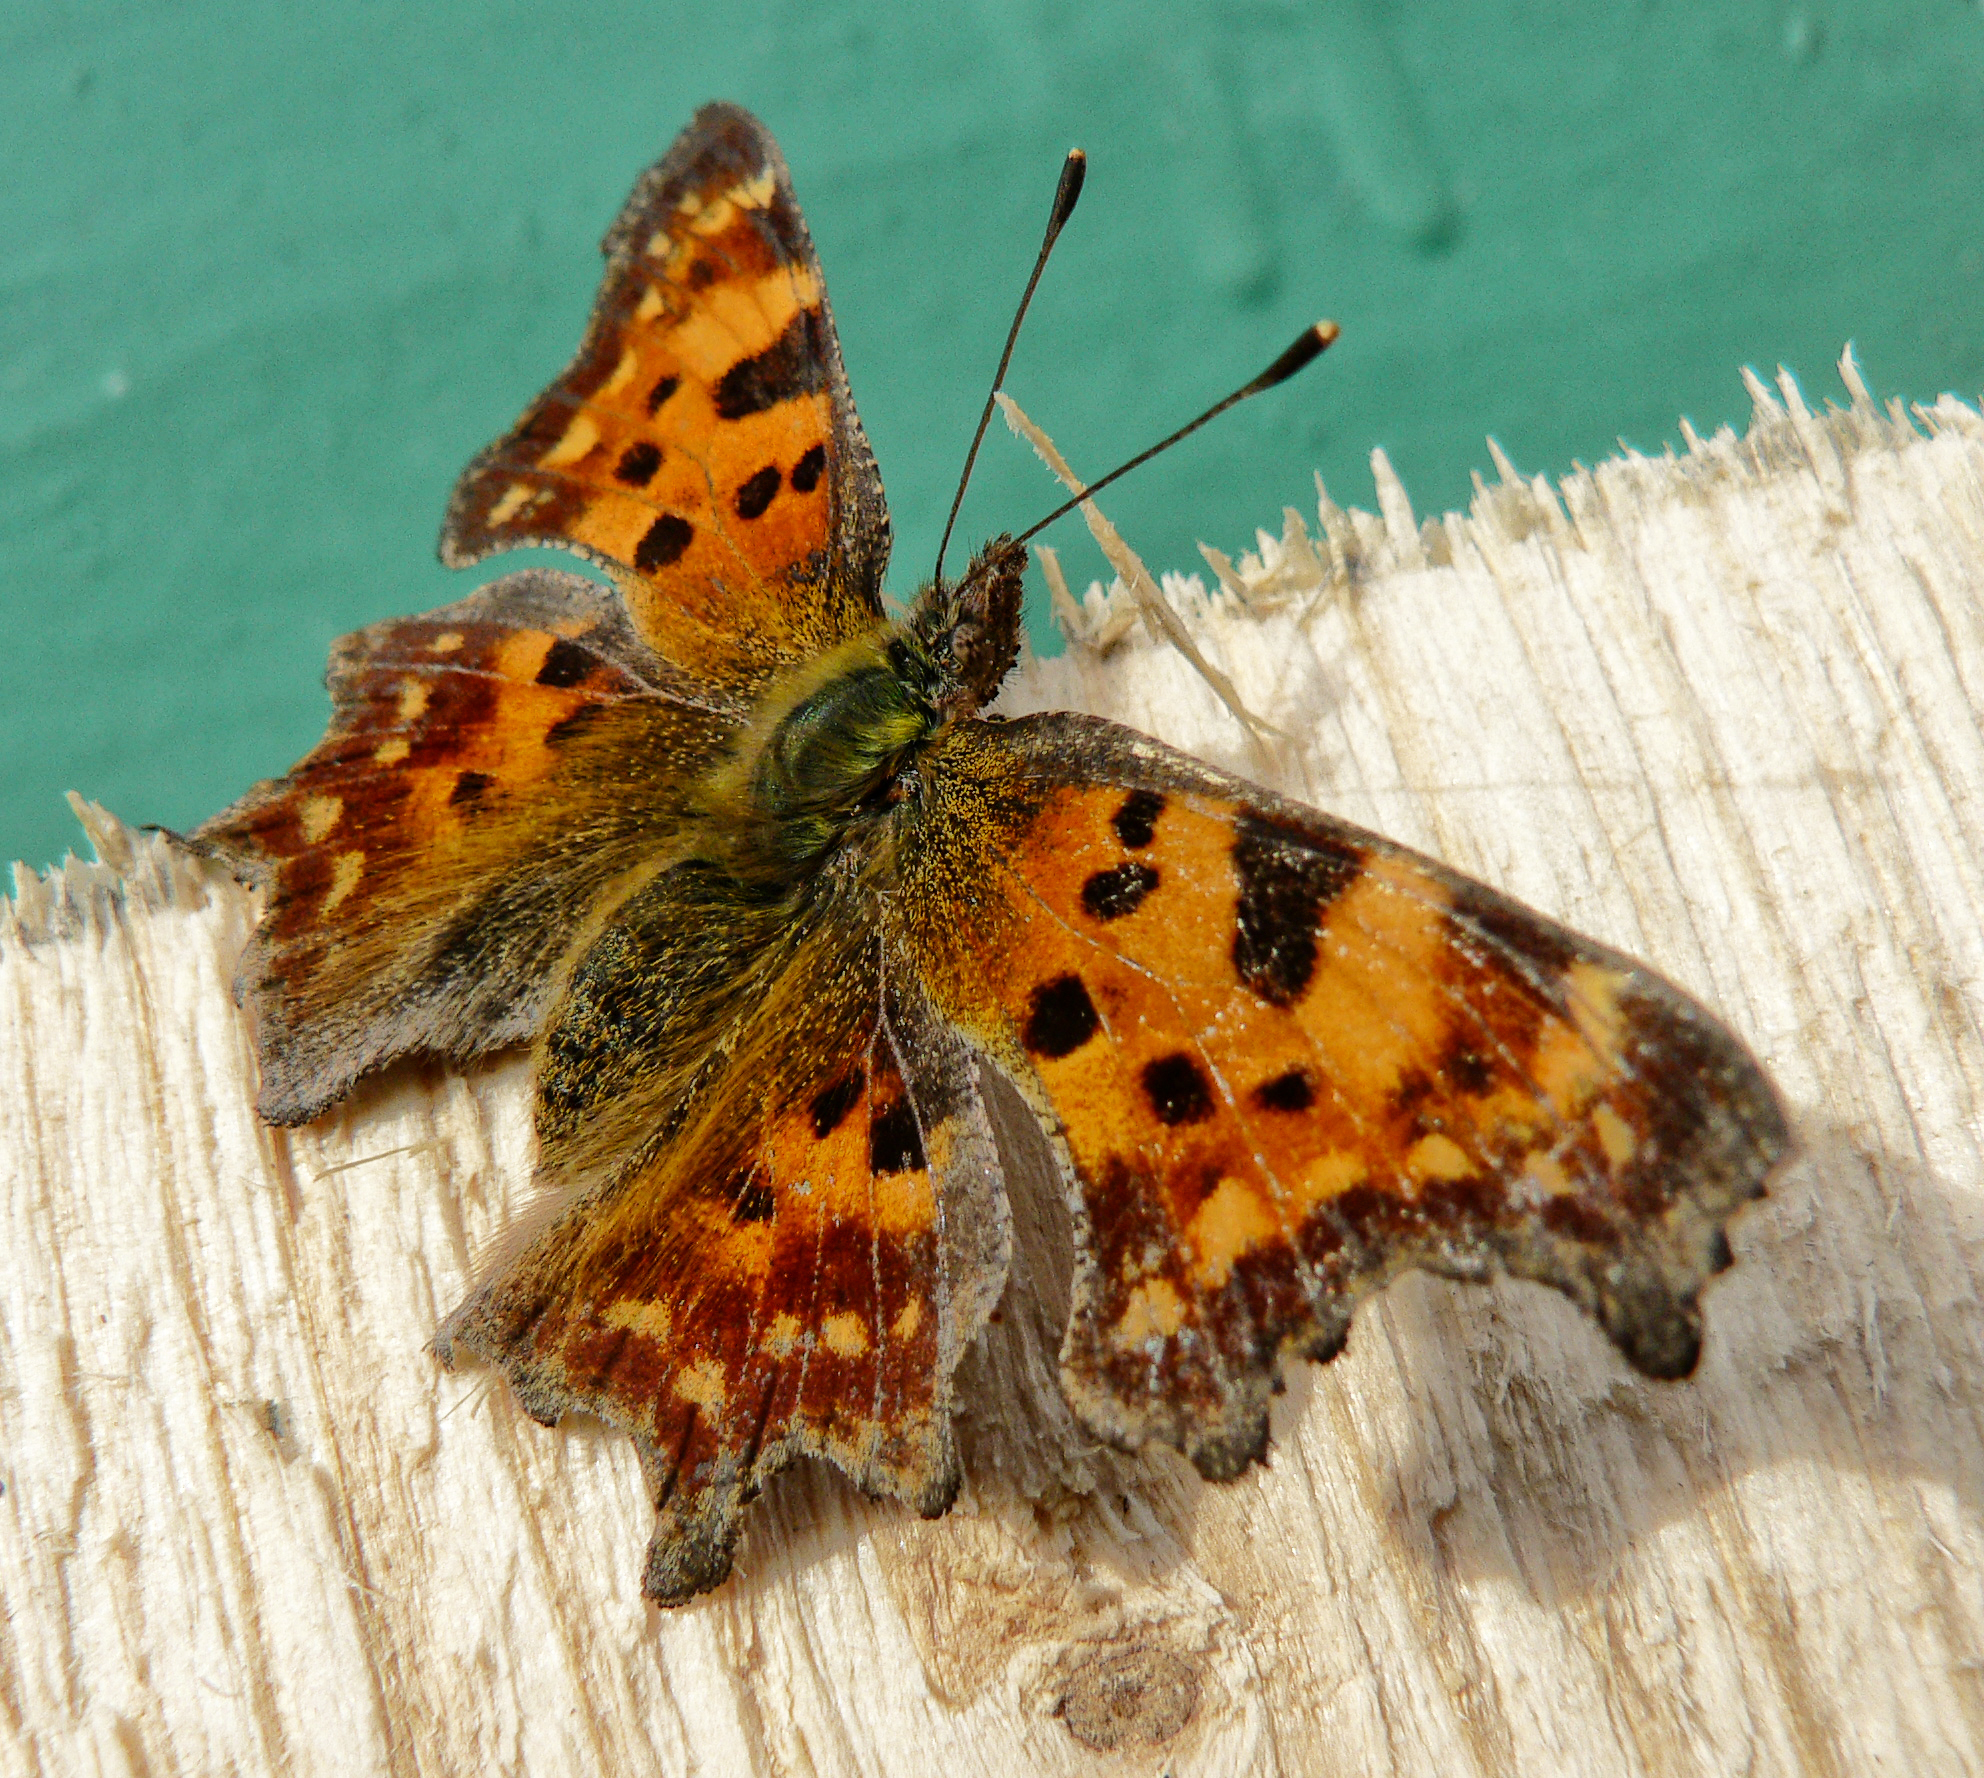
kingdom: Animalia
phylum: Arthropoda
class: Insecta
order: Lepidoptera
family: Nymphalidae
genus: Polygonia
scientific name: Polygonia c-album
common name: Comma
